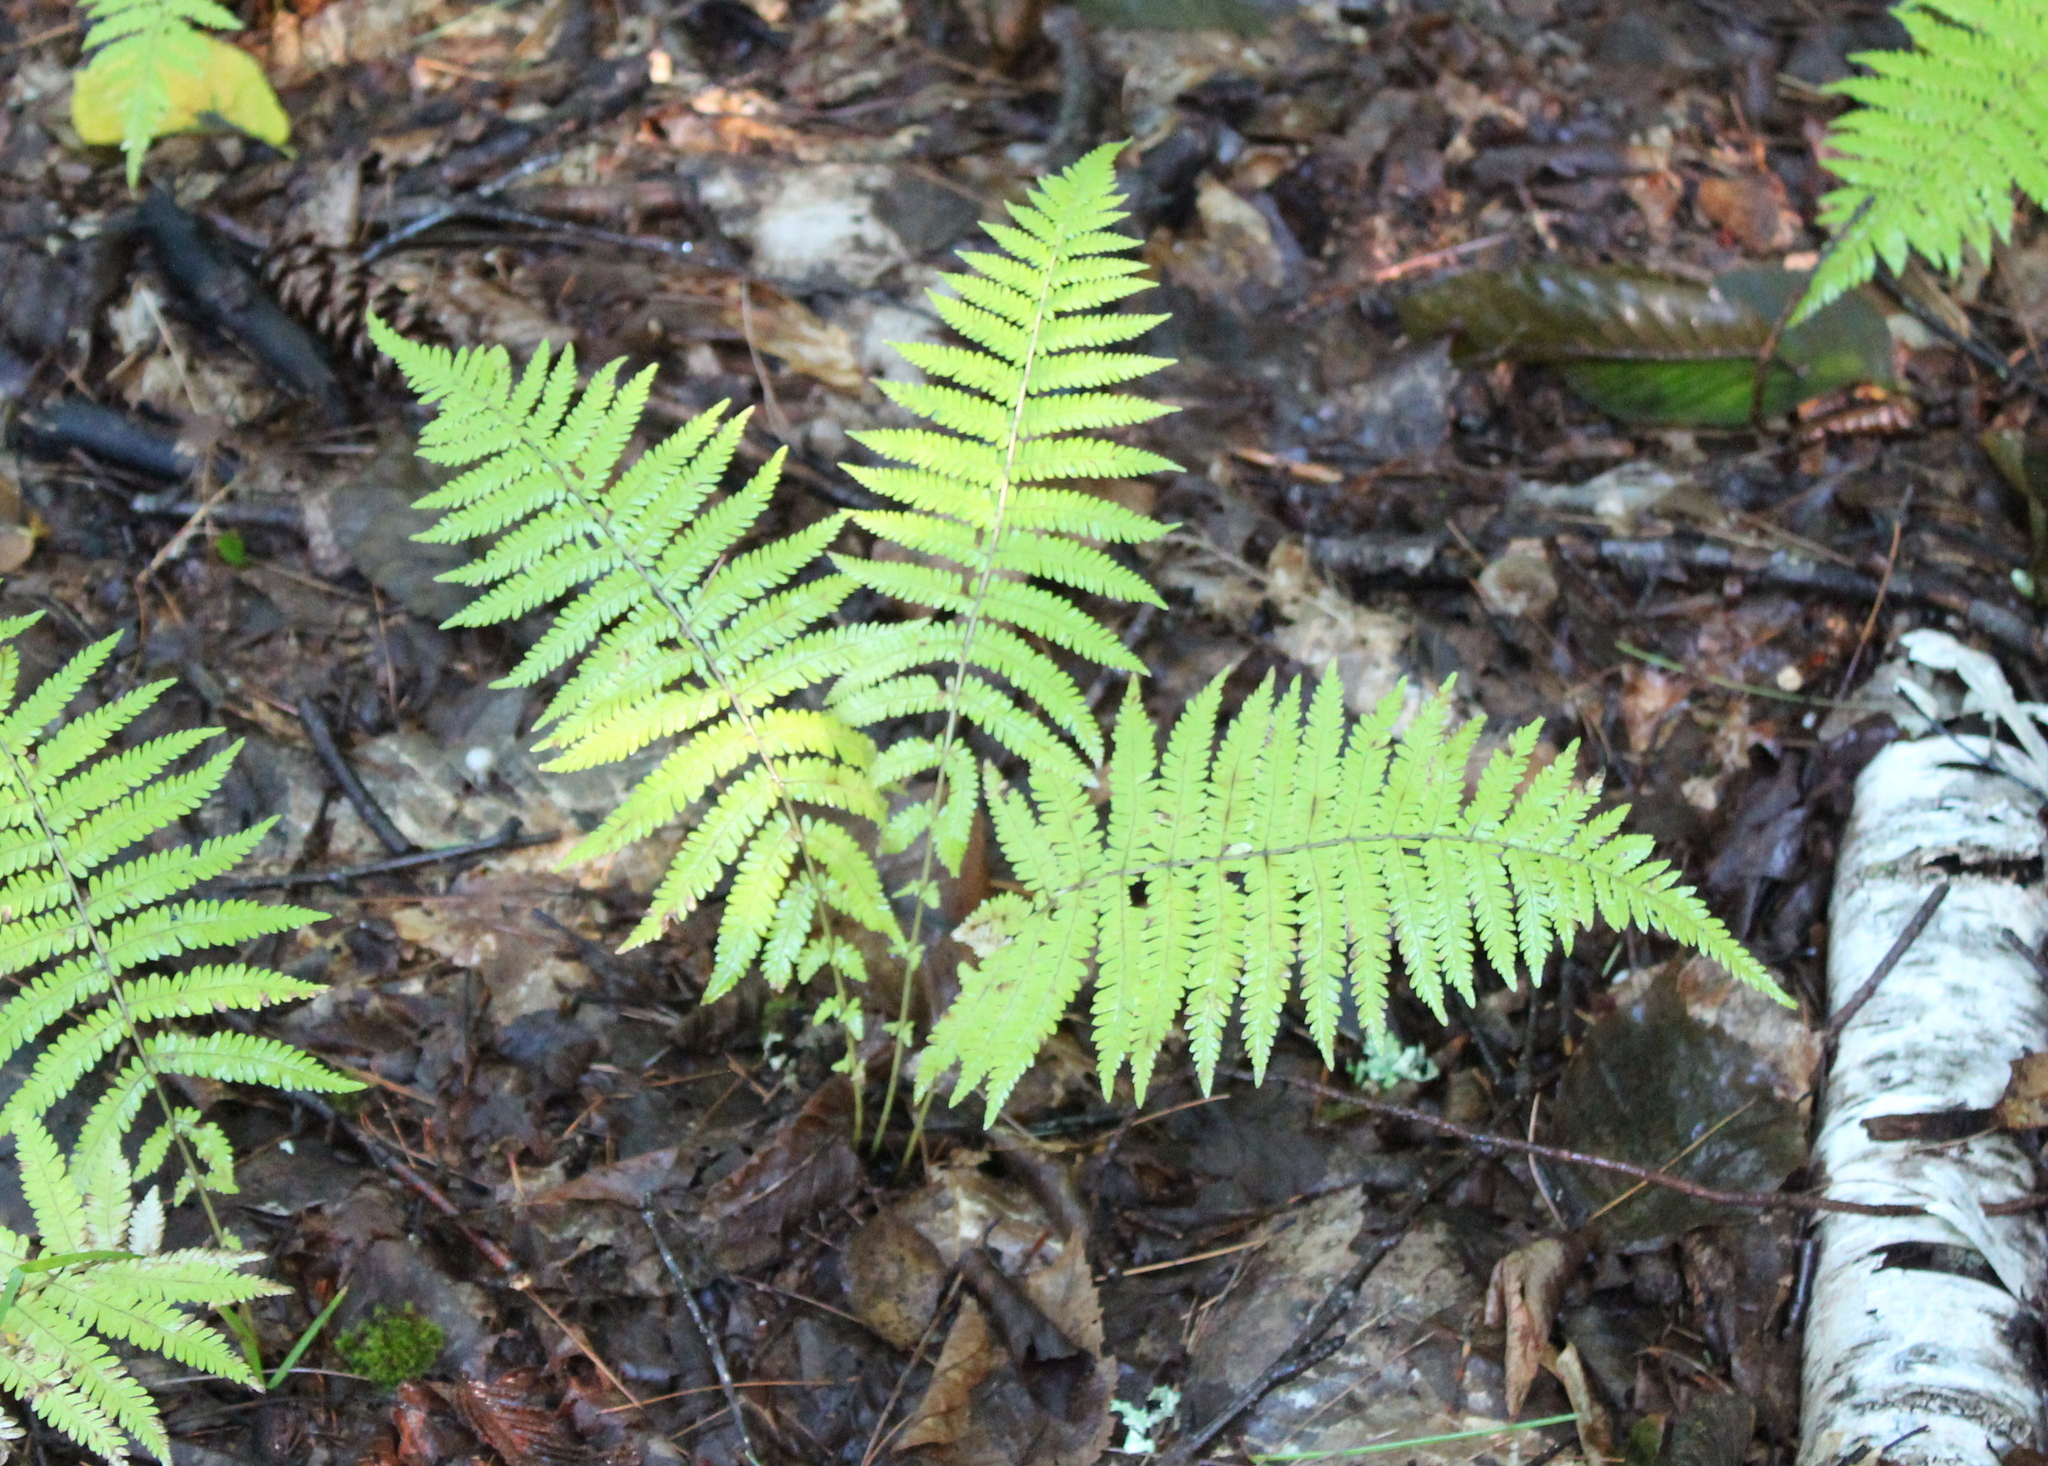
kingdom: Plantae
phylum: Tracheophyta
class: Polypodiopsida
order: Polypodiales
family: Thelypteridaceae
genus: Amauropelta
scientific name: Amauropelta noveboracensis
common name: New york fern
